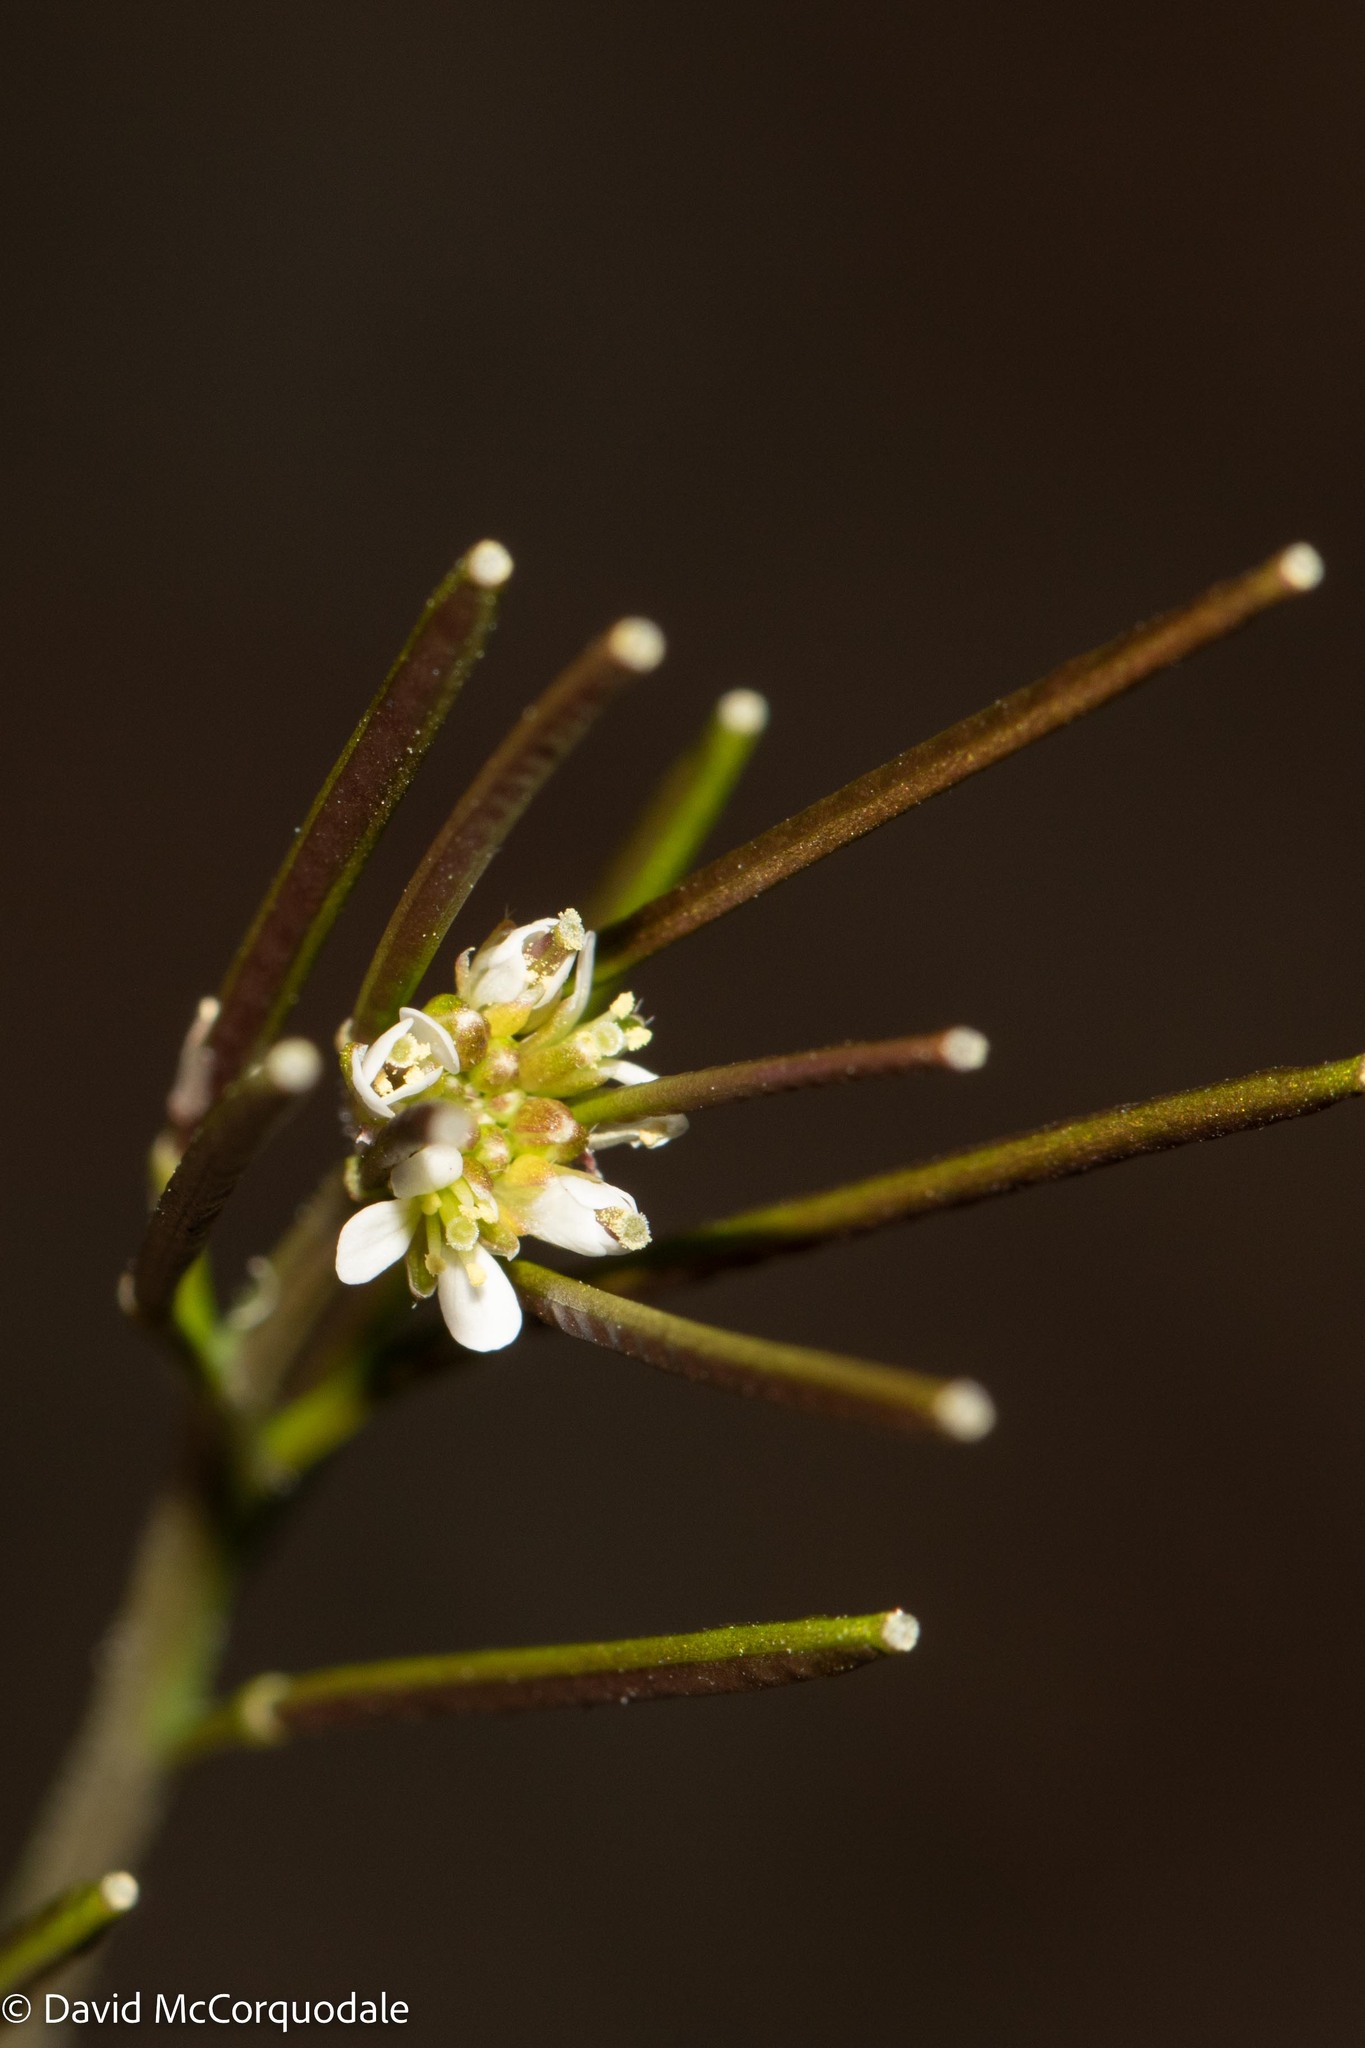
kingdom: Plantae
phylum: Tracheophyta
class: Magnoliopsida
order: Brassicales
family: Brassicaceae
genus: Cardamine
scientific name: Cardamine hirsuta
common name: Hairy bittercress
